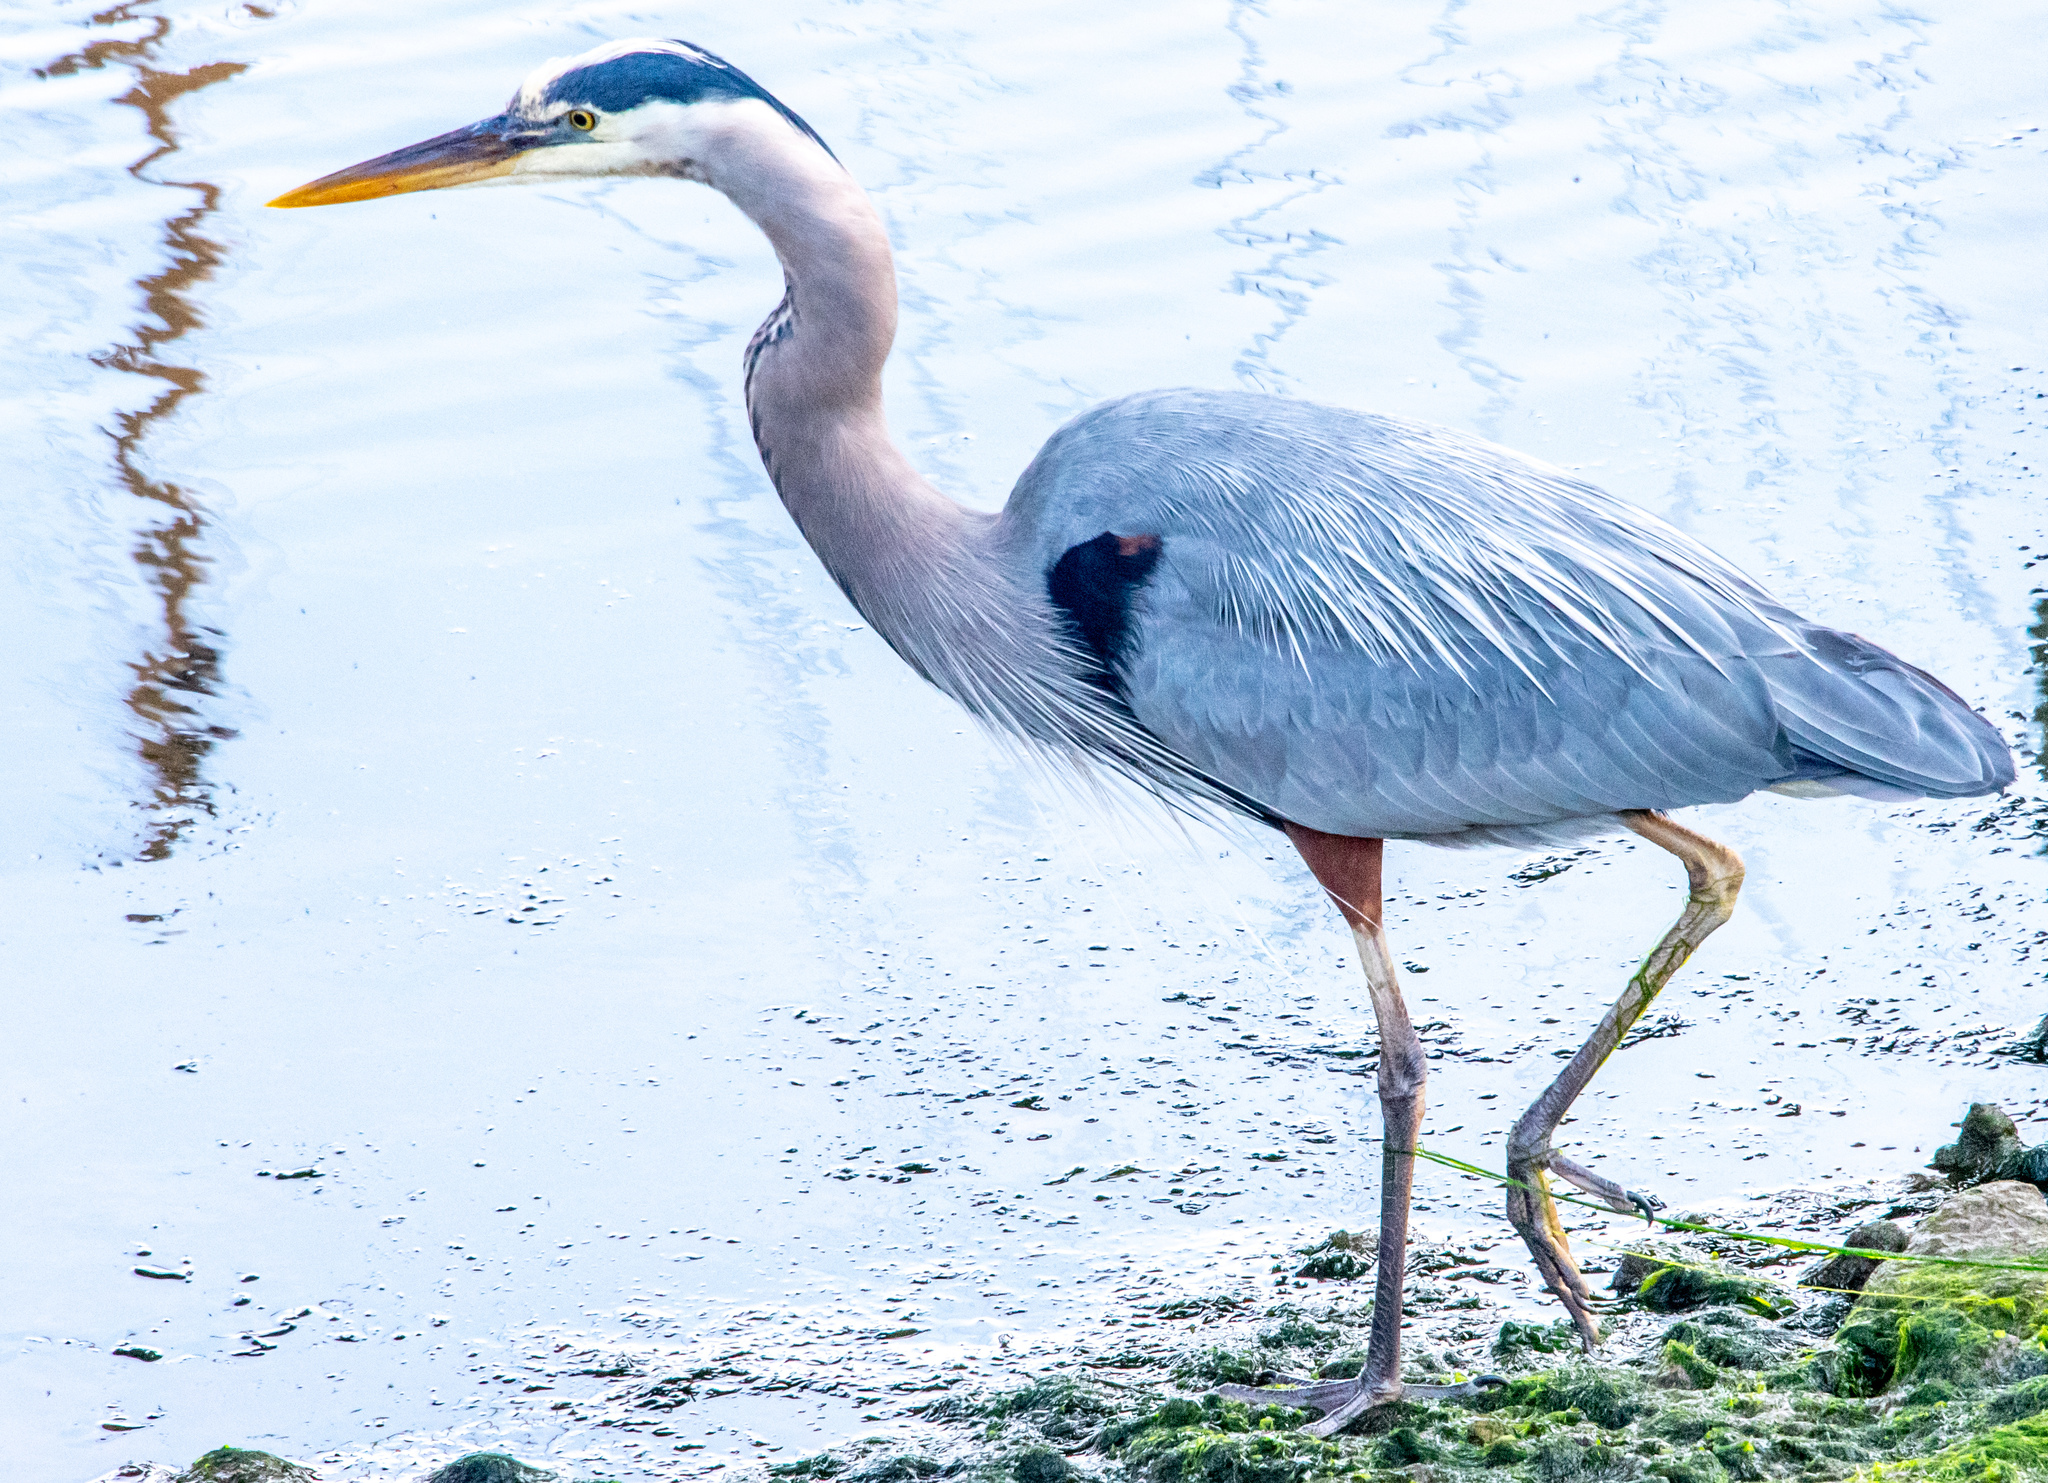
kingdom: Animalia
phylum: Chordata
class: Aves
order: Pelecaniformes
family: Ardeidae
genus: Ardea
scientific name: Ardea herodias
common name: Great blue heron
